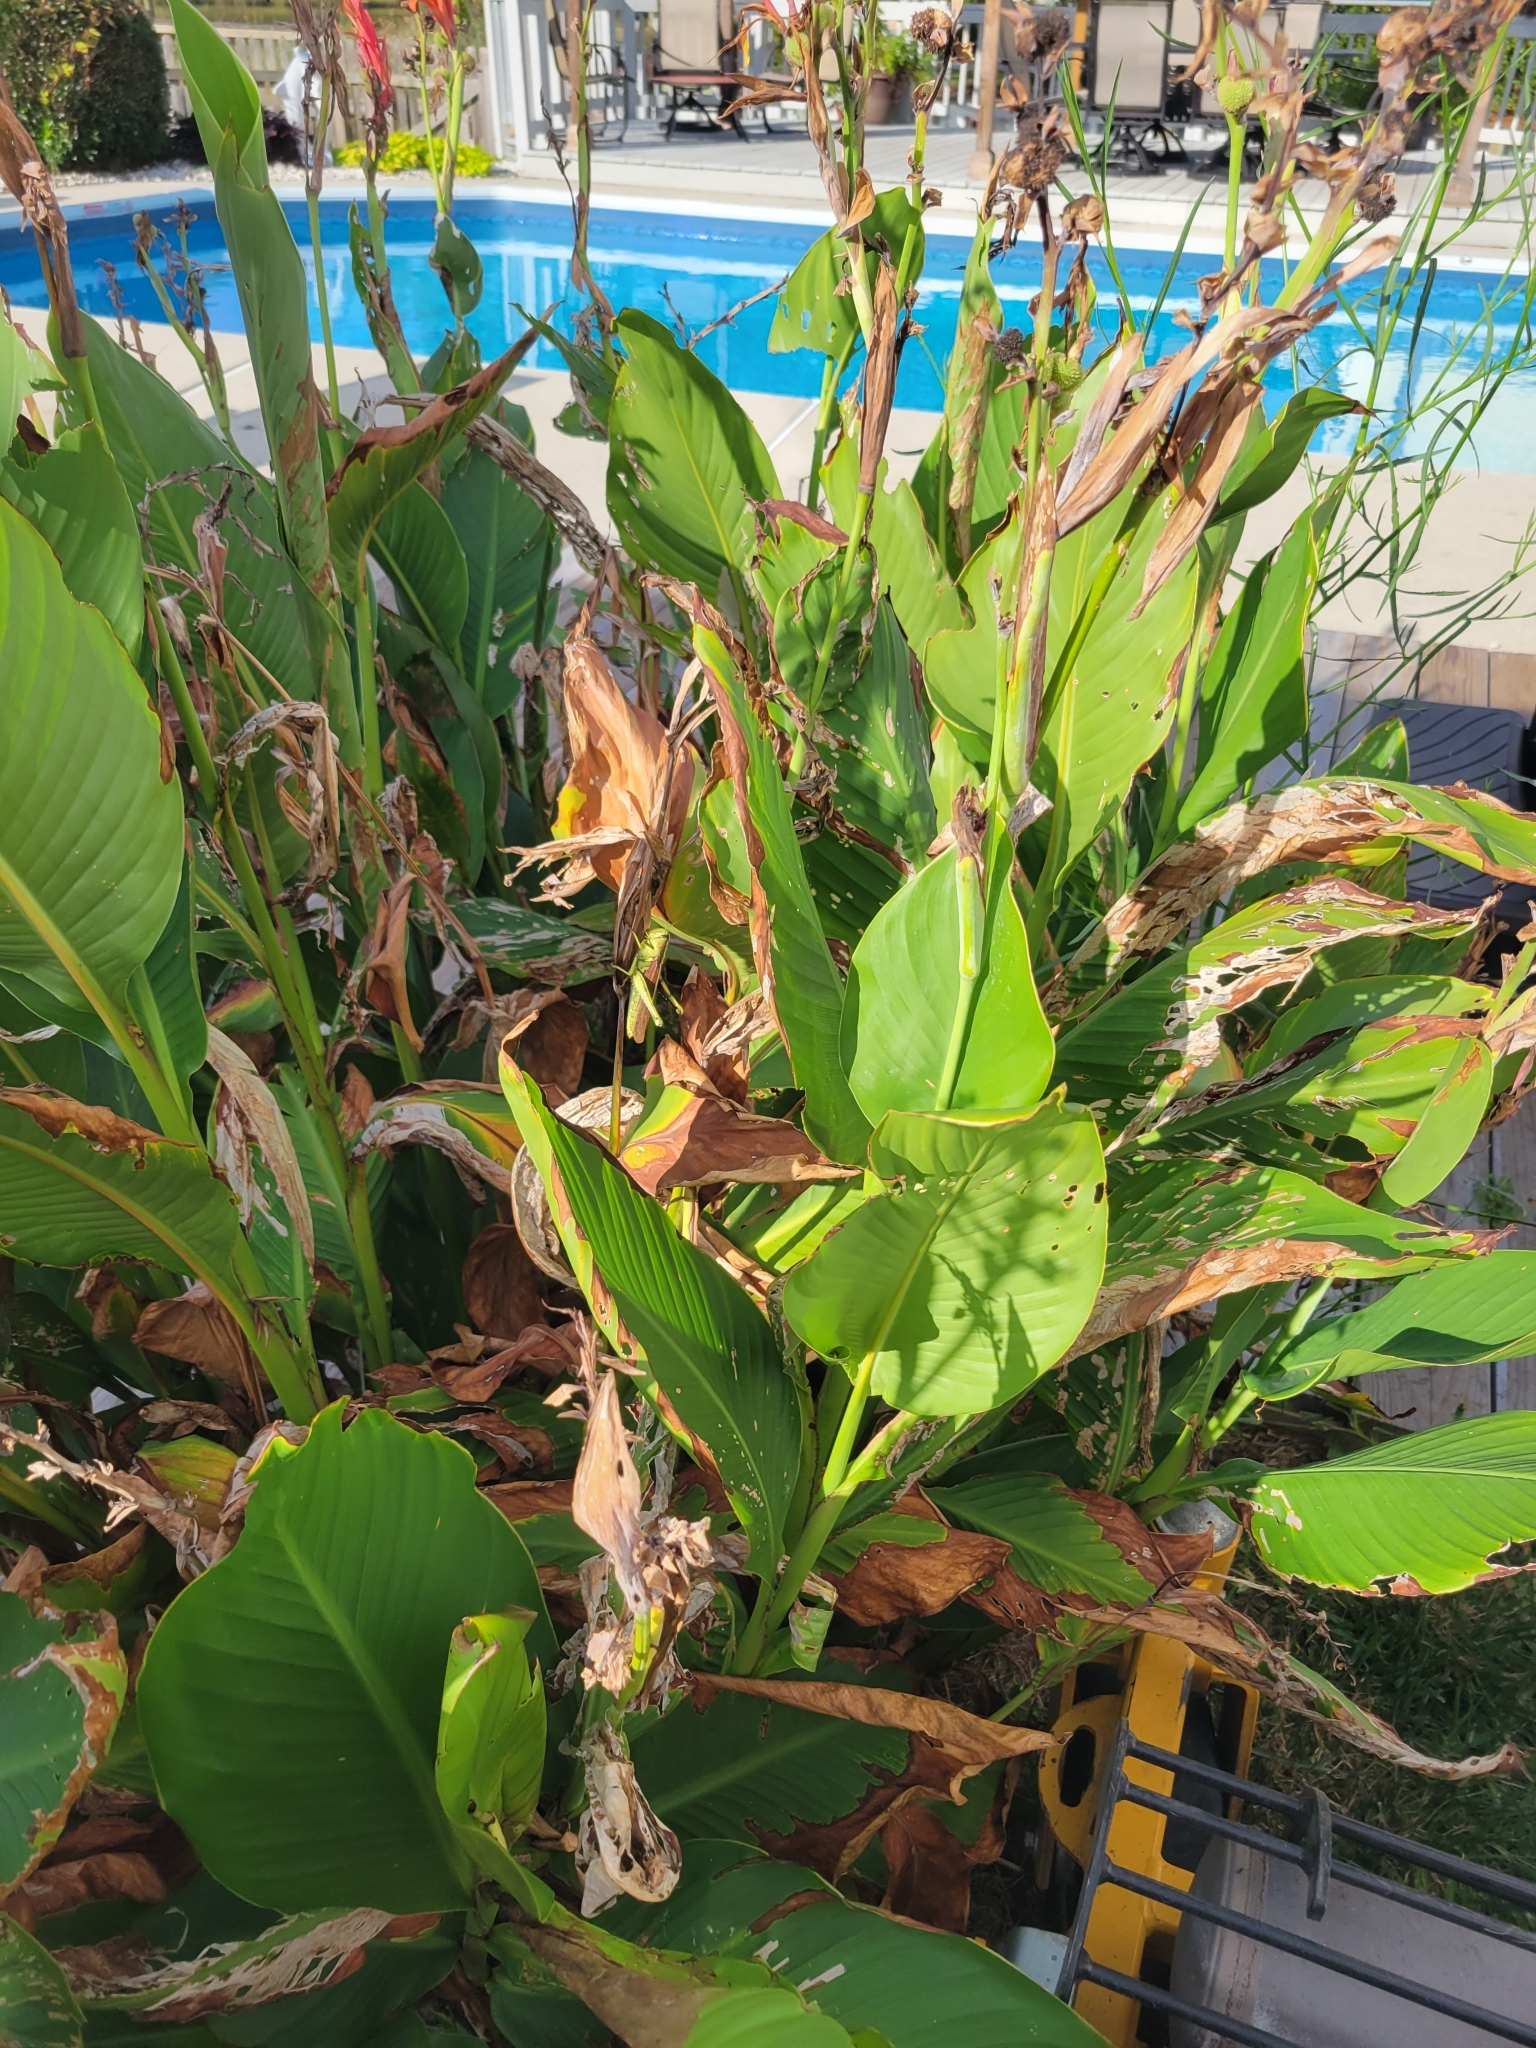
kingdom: Animalia
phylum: Arthropoda
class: Insecta
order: Orthoptera
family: Acrididae
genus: Schistocerca
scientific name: Schistocerca obscura
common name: Obscure bird grasshopper
